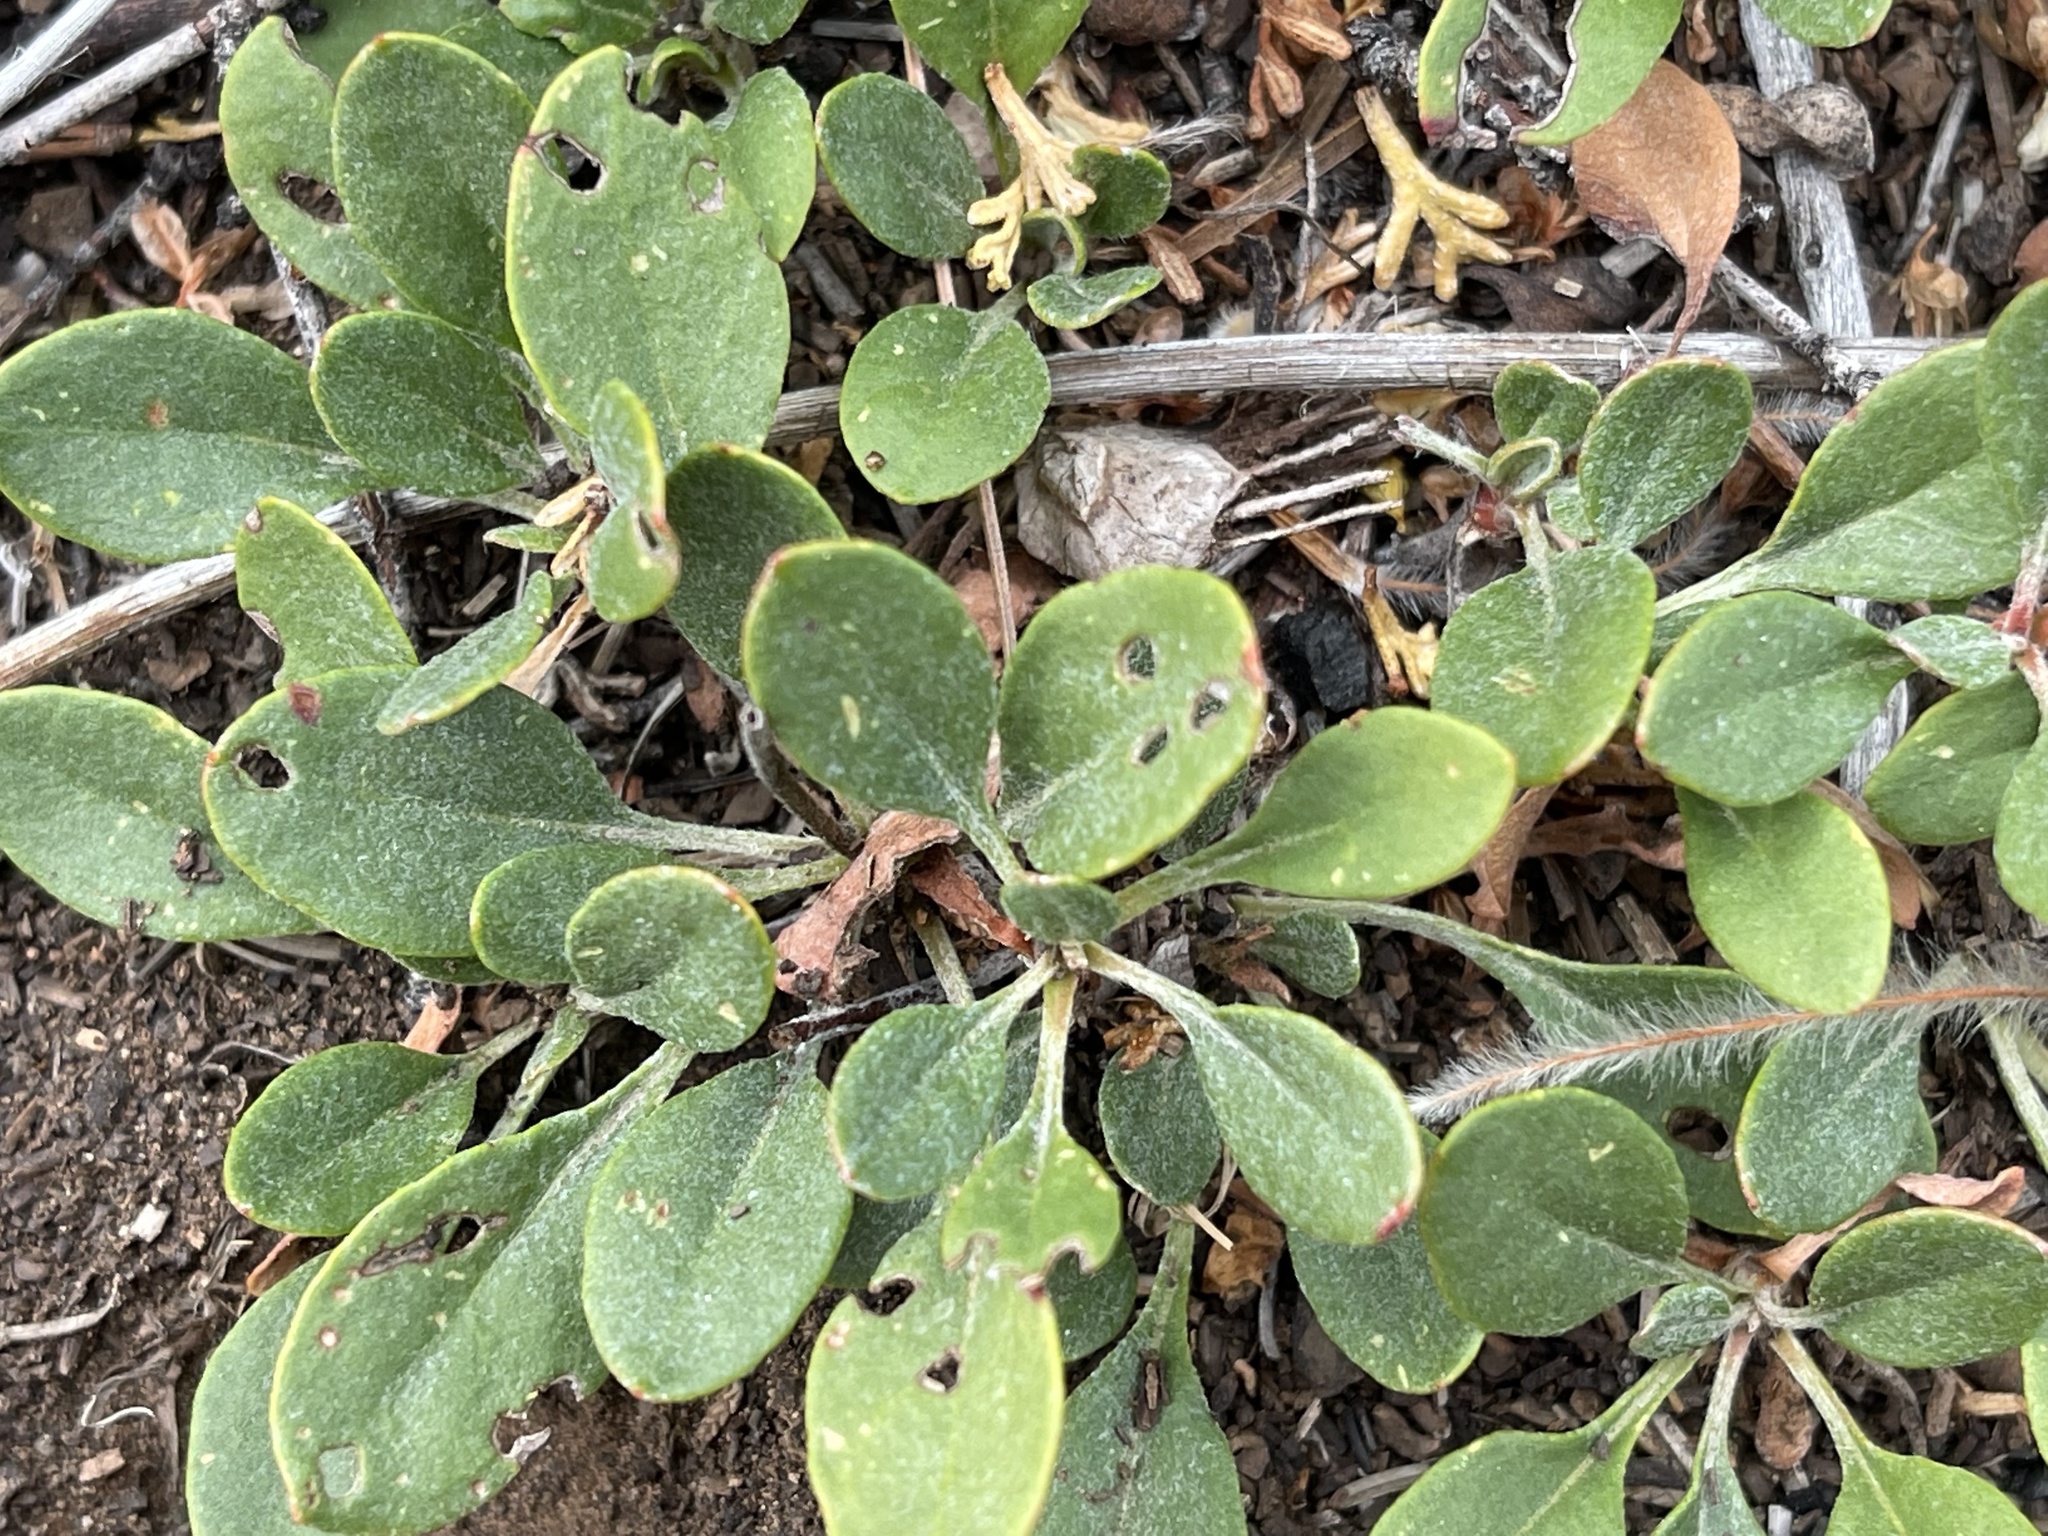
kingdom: Plantae
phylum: Tracheophyta
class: Magnoliopsida
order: Caryophyllales
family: Polygonaceae
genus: Eriogonum
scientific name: Eriogonum umbellatum
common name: Sulfur-buckwheat
